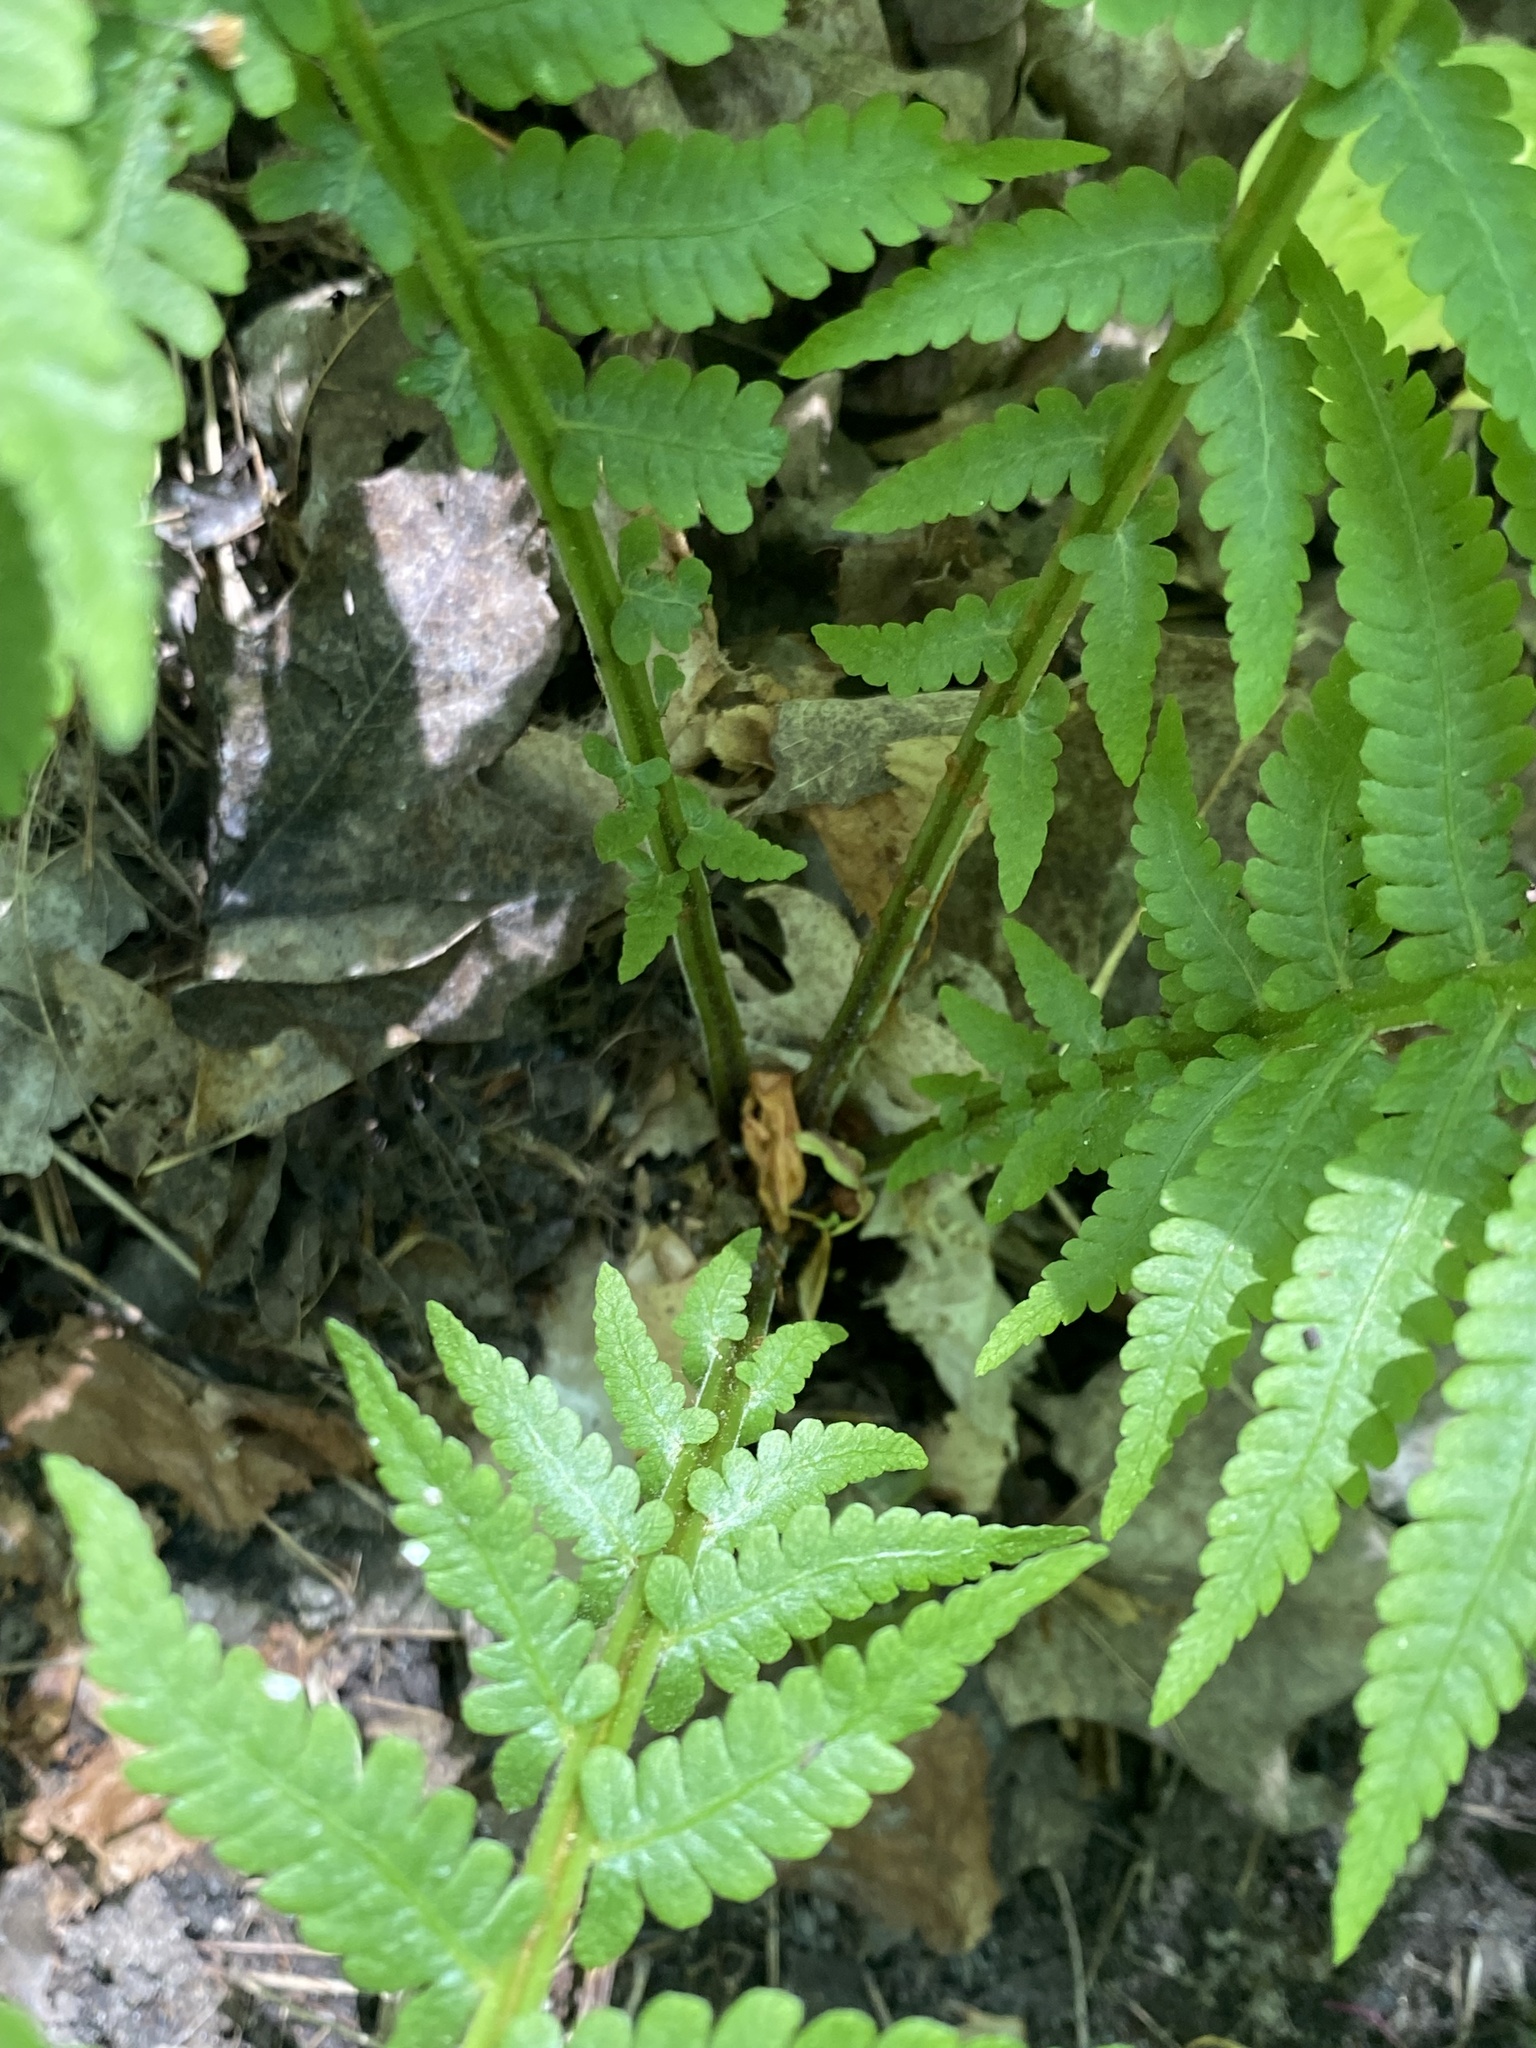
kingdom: Plantae
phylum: Tracheophyta
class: Polypodiopsida
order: Polypodiales
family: Onocleaceae
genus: Matteuccia
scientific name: Matteuccia struthiopteris
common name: Ostrich fern
